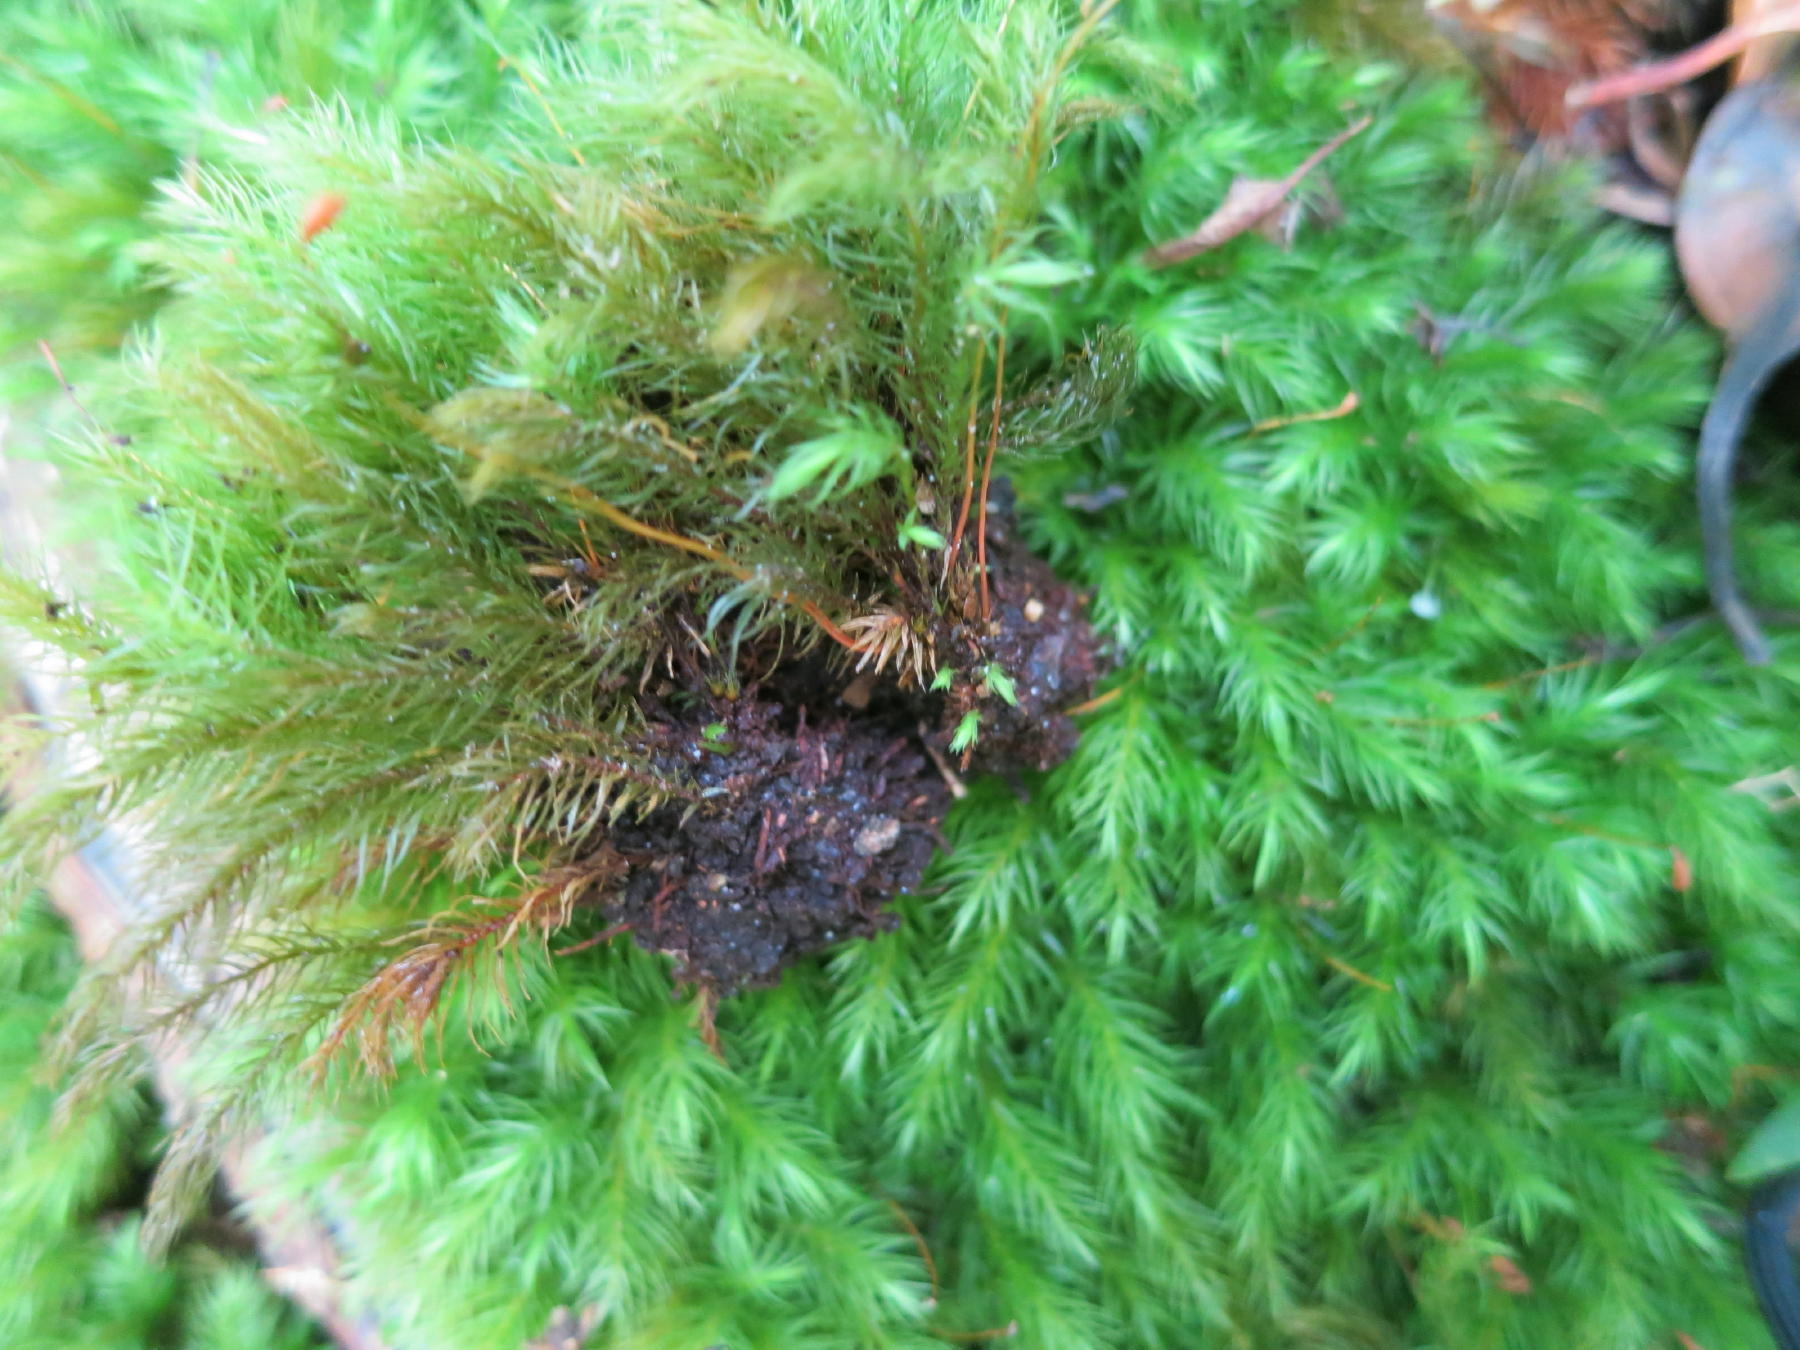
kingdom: Plantae
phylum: Bryophyta
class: Bryopsida
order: Rhizogoniales
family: Calomniaceae
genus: Pyrrhobryum
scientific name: Pyrrhobryum spiniforme
